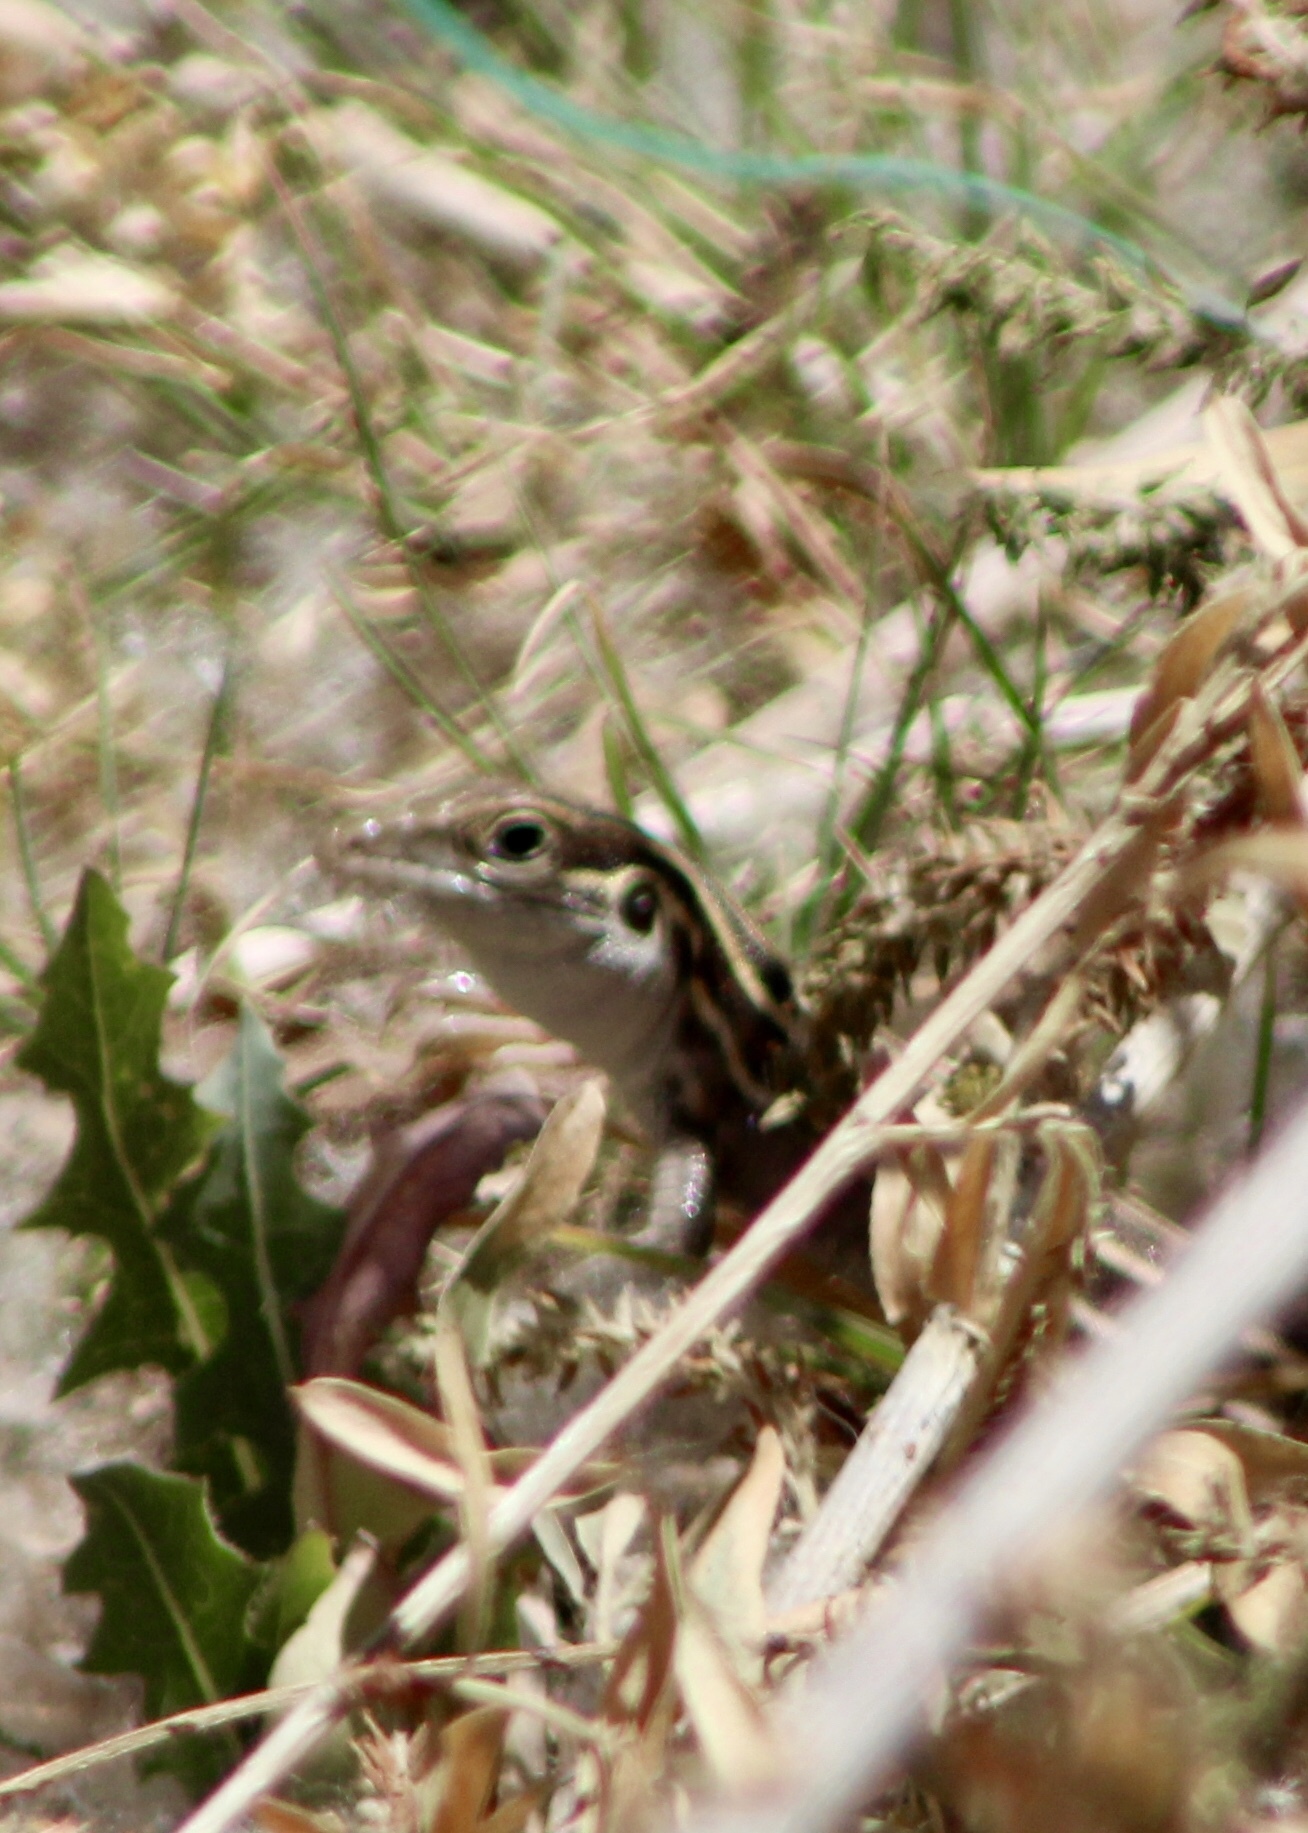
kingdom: Animalia
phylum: Chordata
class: Squamata
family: Teiidae
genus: Aspidoscelis
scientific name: Aspidoscelis sonorae
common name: Sonoran spotted whiptail
